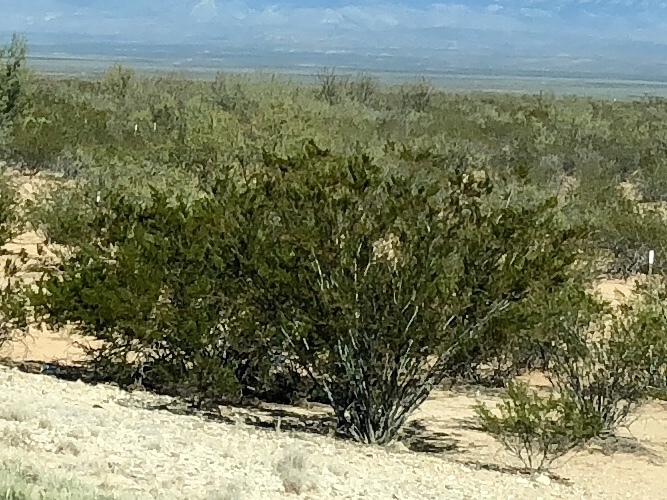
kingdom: Plantae
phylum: Tracheophyta
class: Magnoliopsida
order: Zygophyllales
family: Zygophyllaceae
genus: Larrea
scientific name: Larrea tridentata
